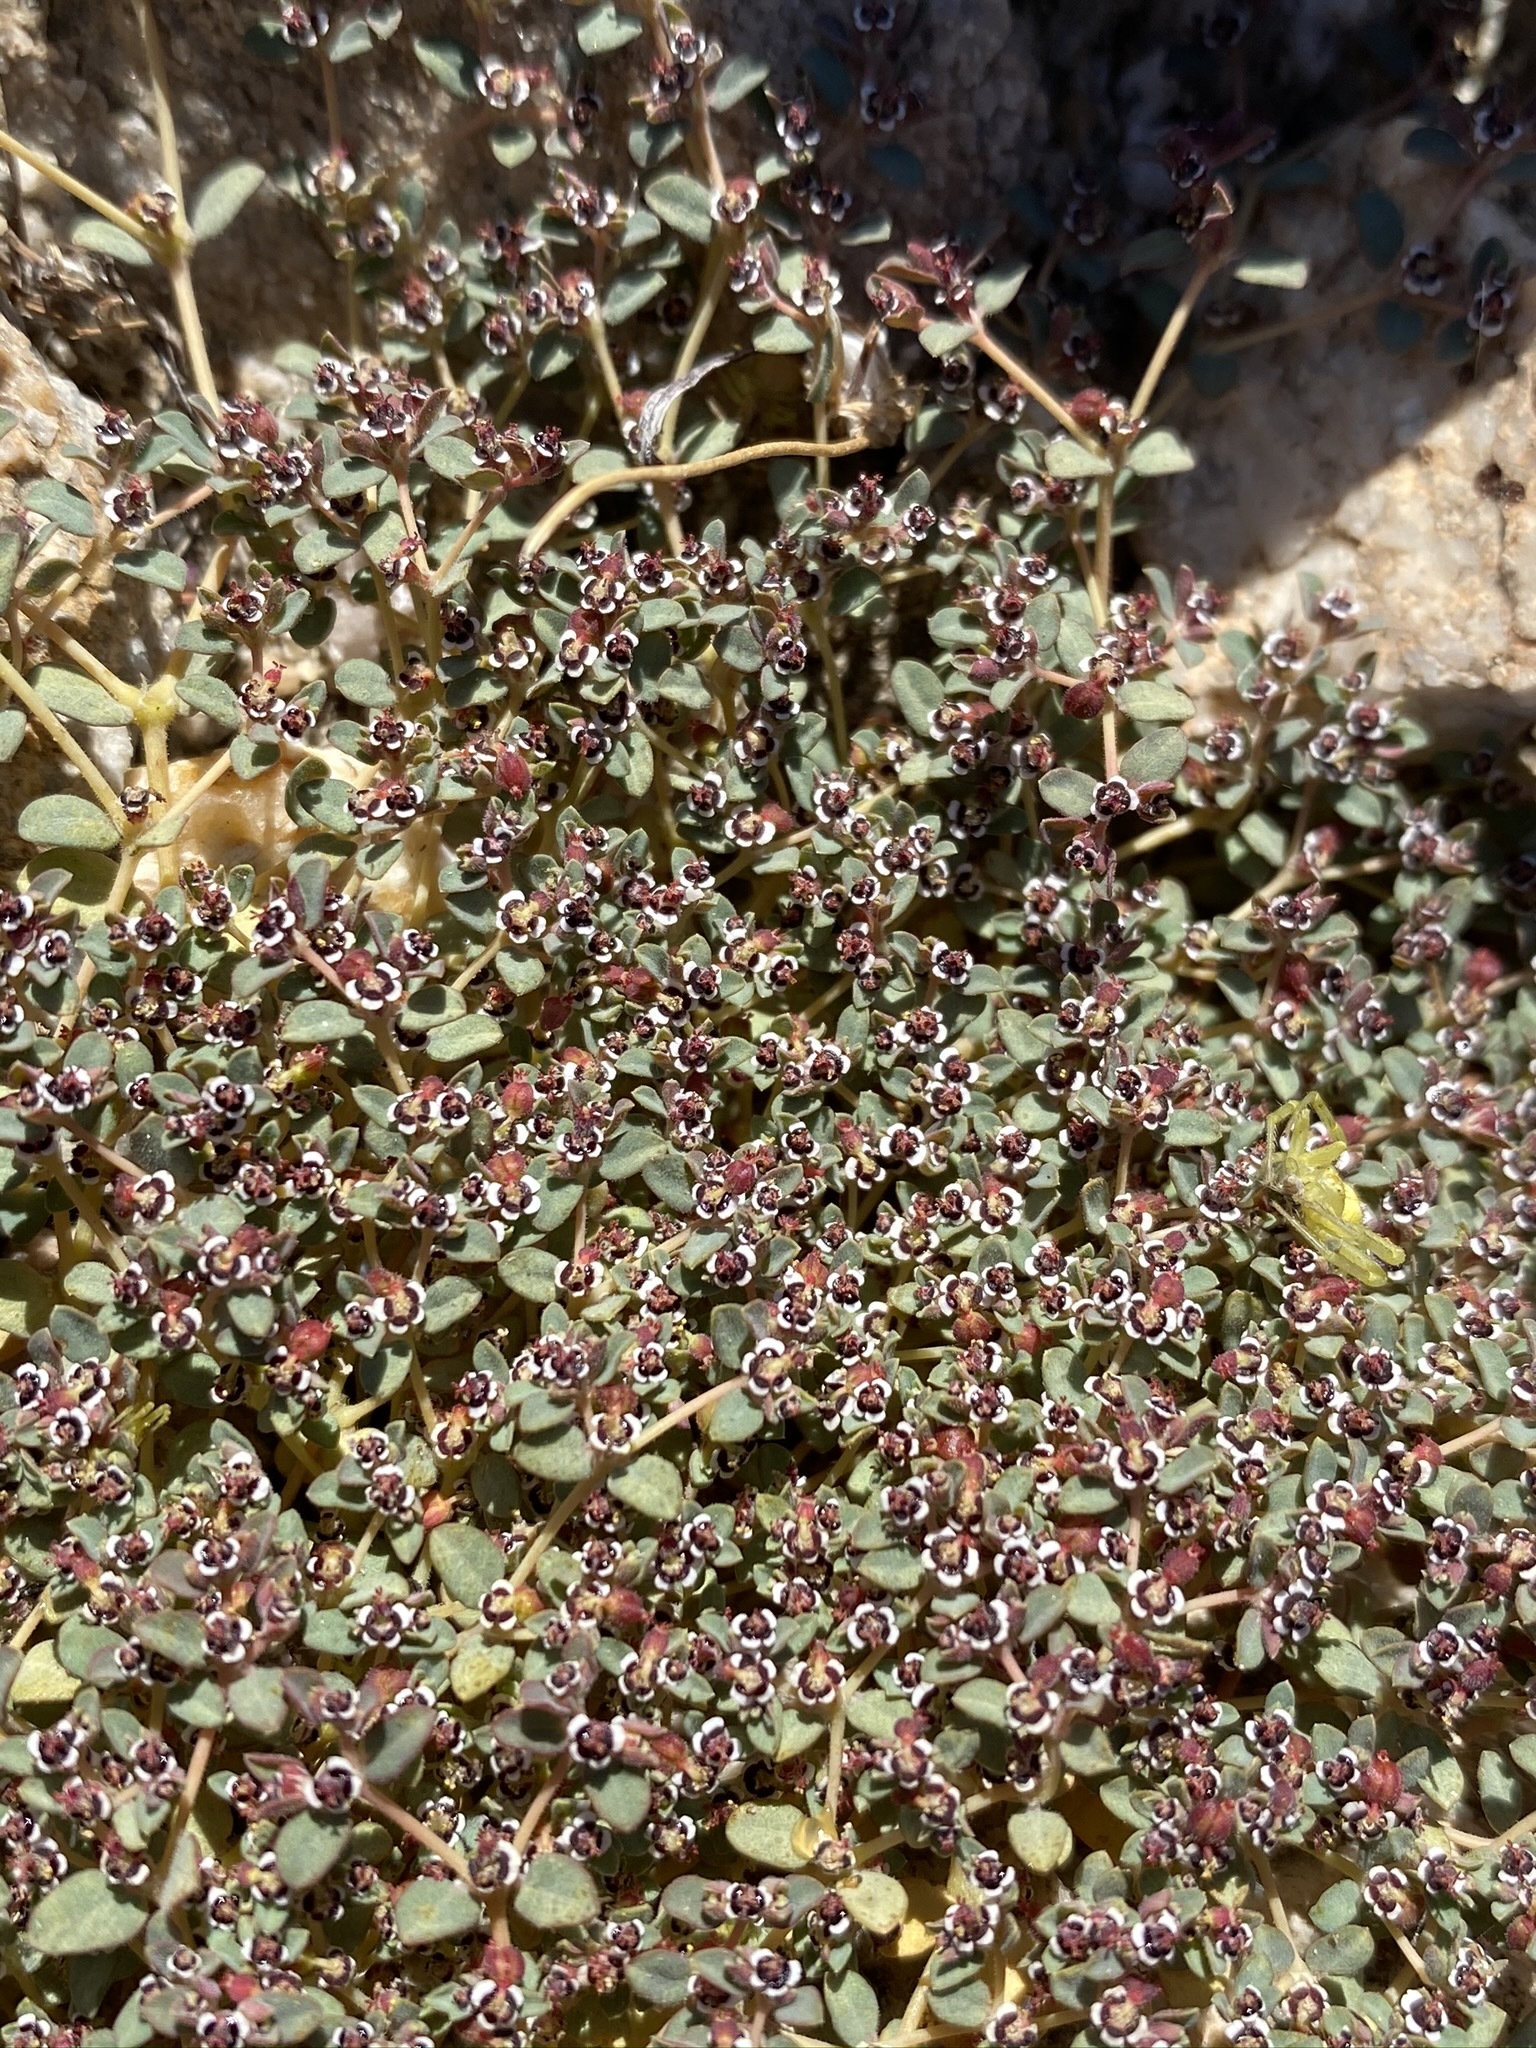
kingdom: Plantae
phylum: Tracheophyta
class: Magnoliopsida
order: Malpighiales
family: Euphorbiaceae
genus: Euphorbia
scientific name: Euphorbia polycarpa
